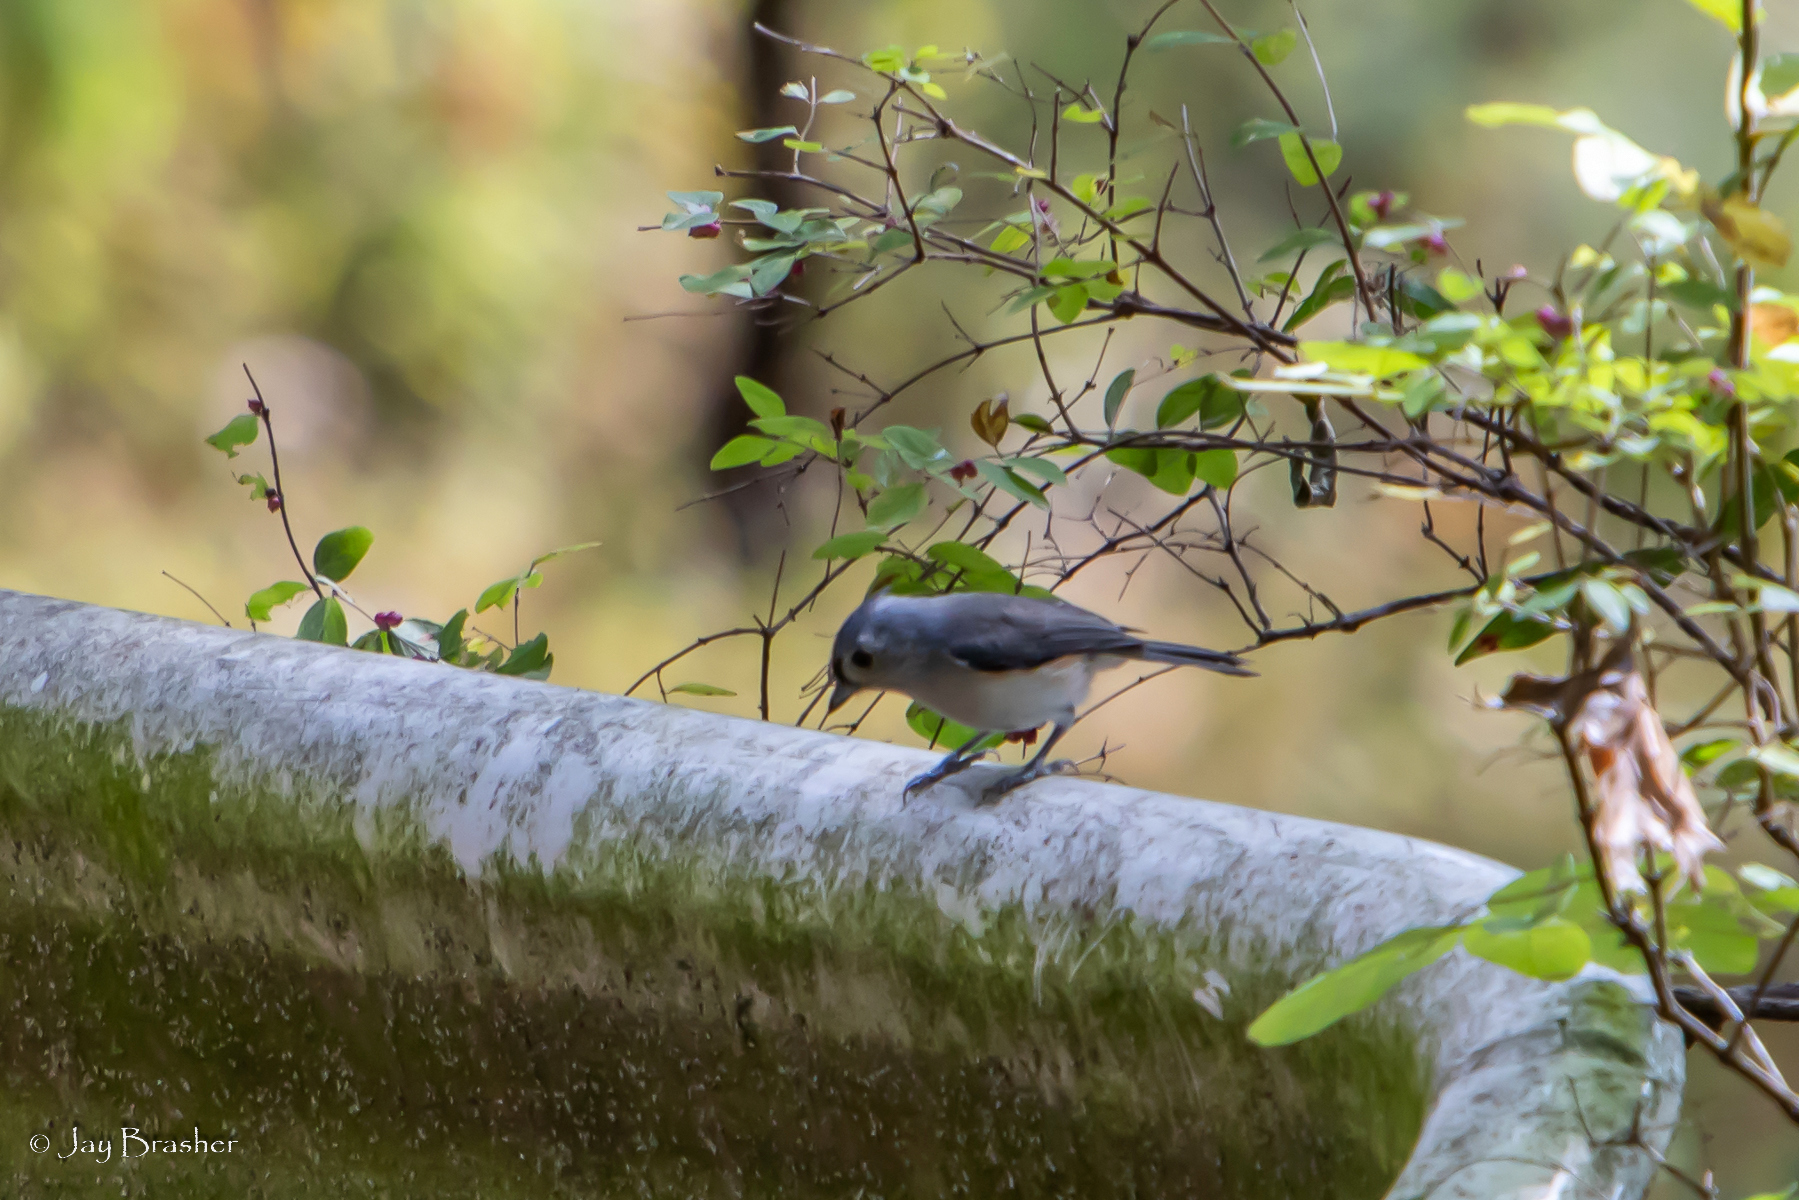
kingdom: Animalia
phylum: Chordata
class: Aves
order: Passeriformes
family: Paridae
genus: Baeolophus
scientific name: Baeolophus bicolor
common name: Tufted titmouse
